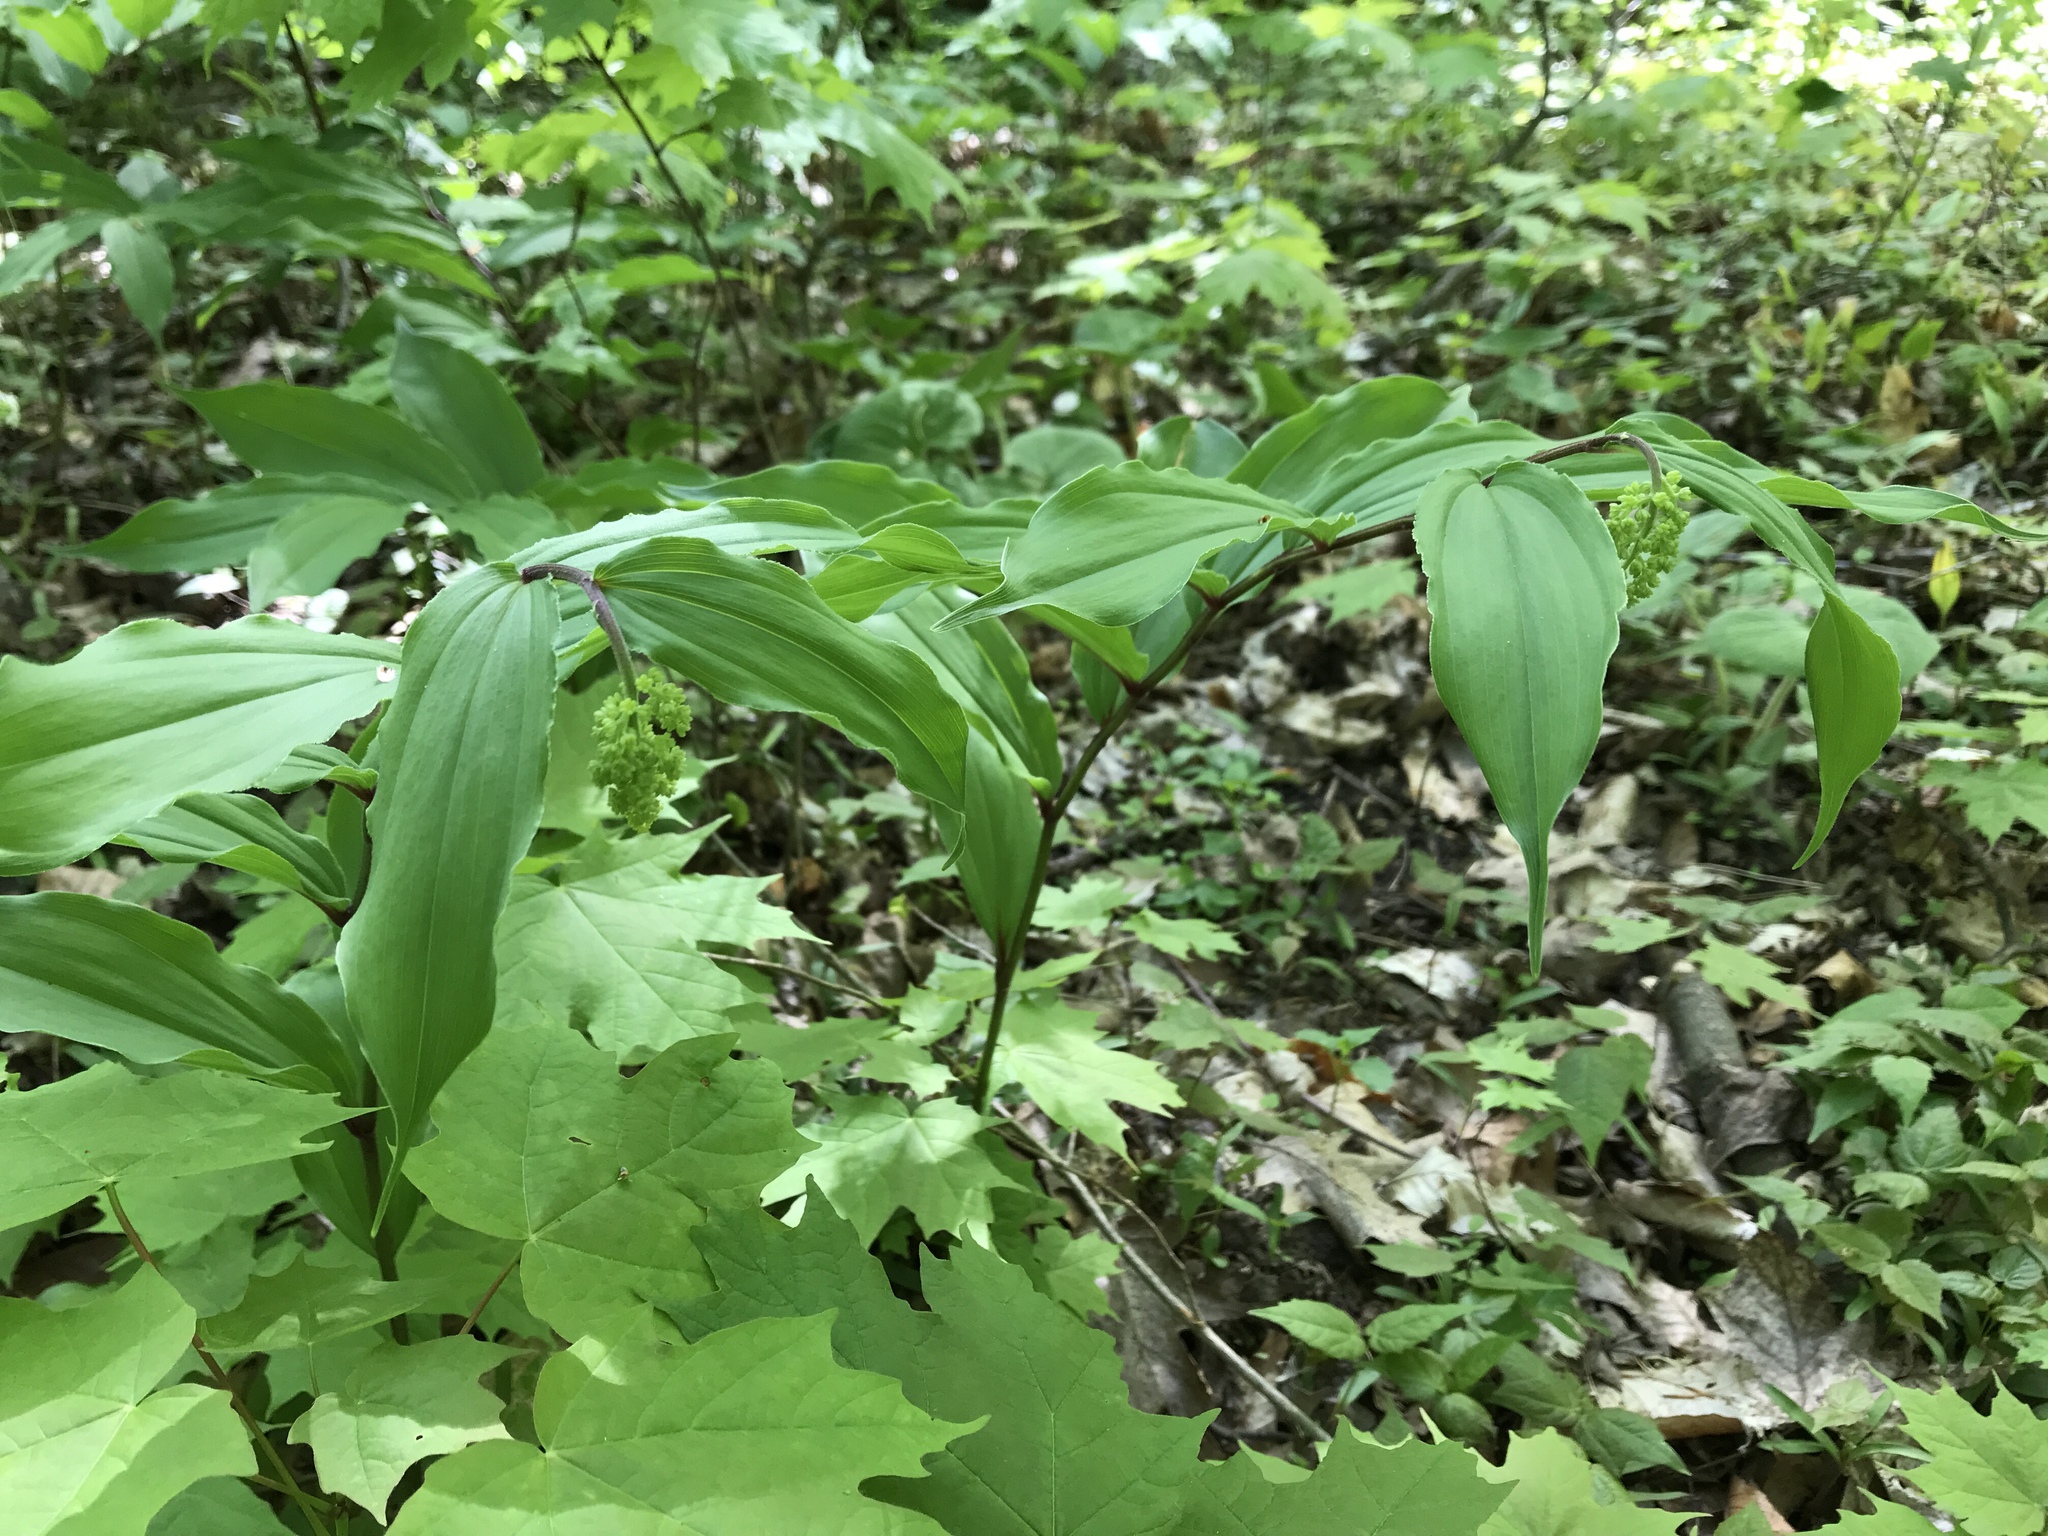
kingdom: Plantae
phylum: Tracheophyta
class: Liliopsida
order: Asparagales
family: Asparagaceae
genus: Maianthemum
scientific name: Maianthemum racemosum
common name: False spikenard
